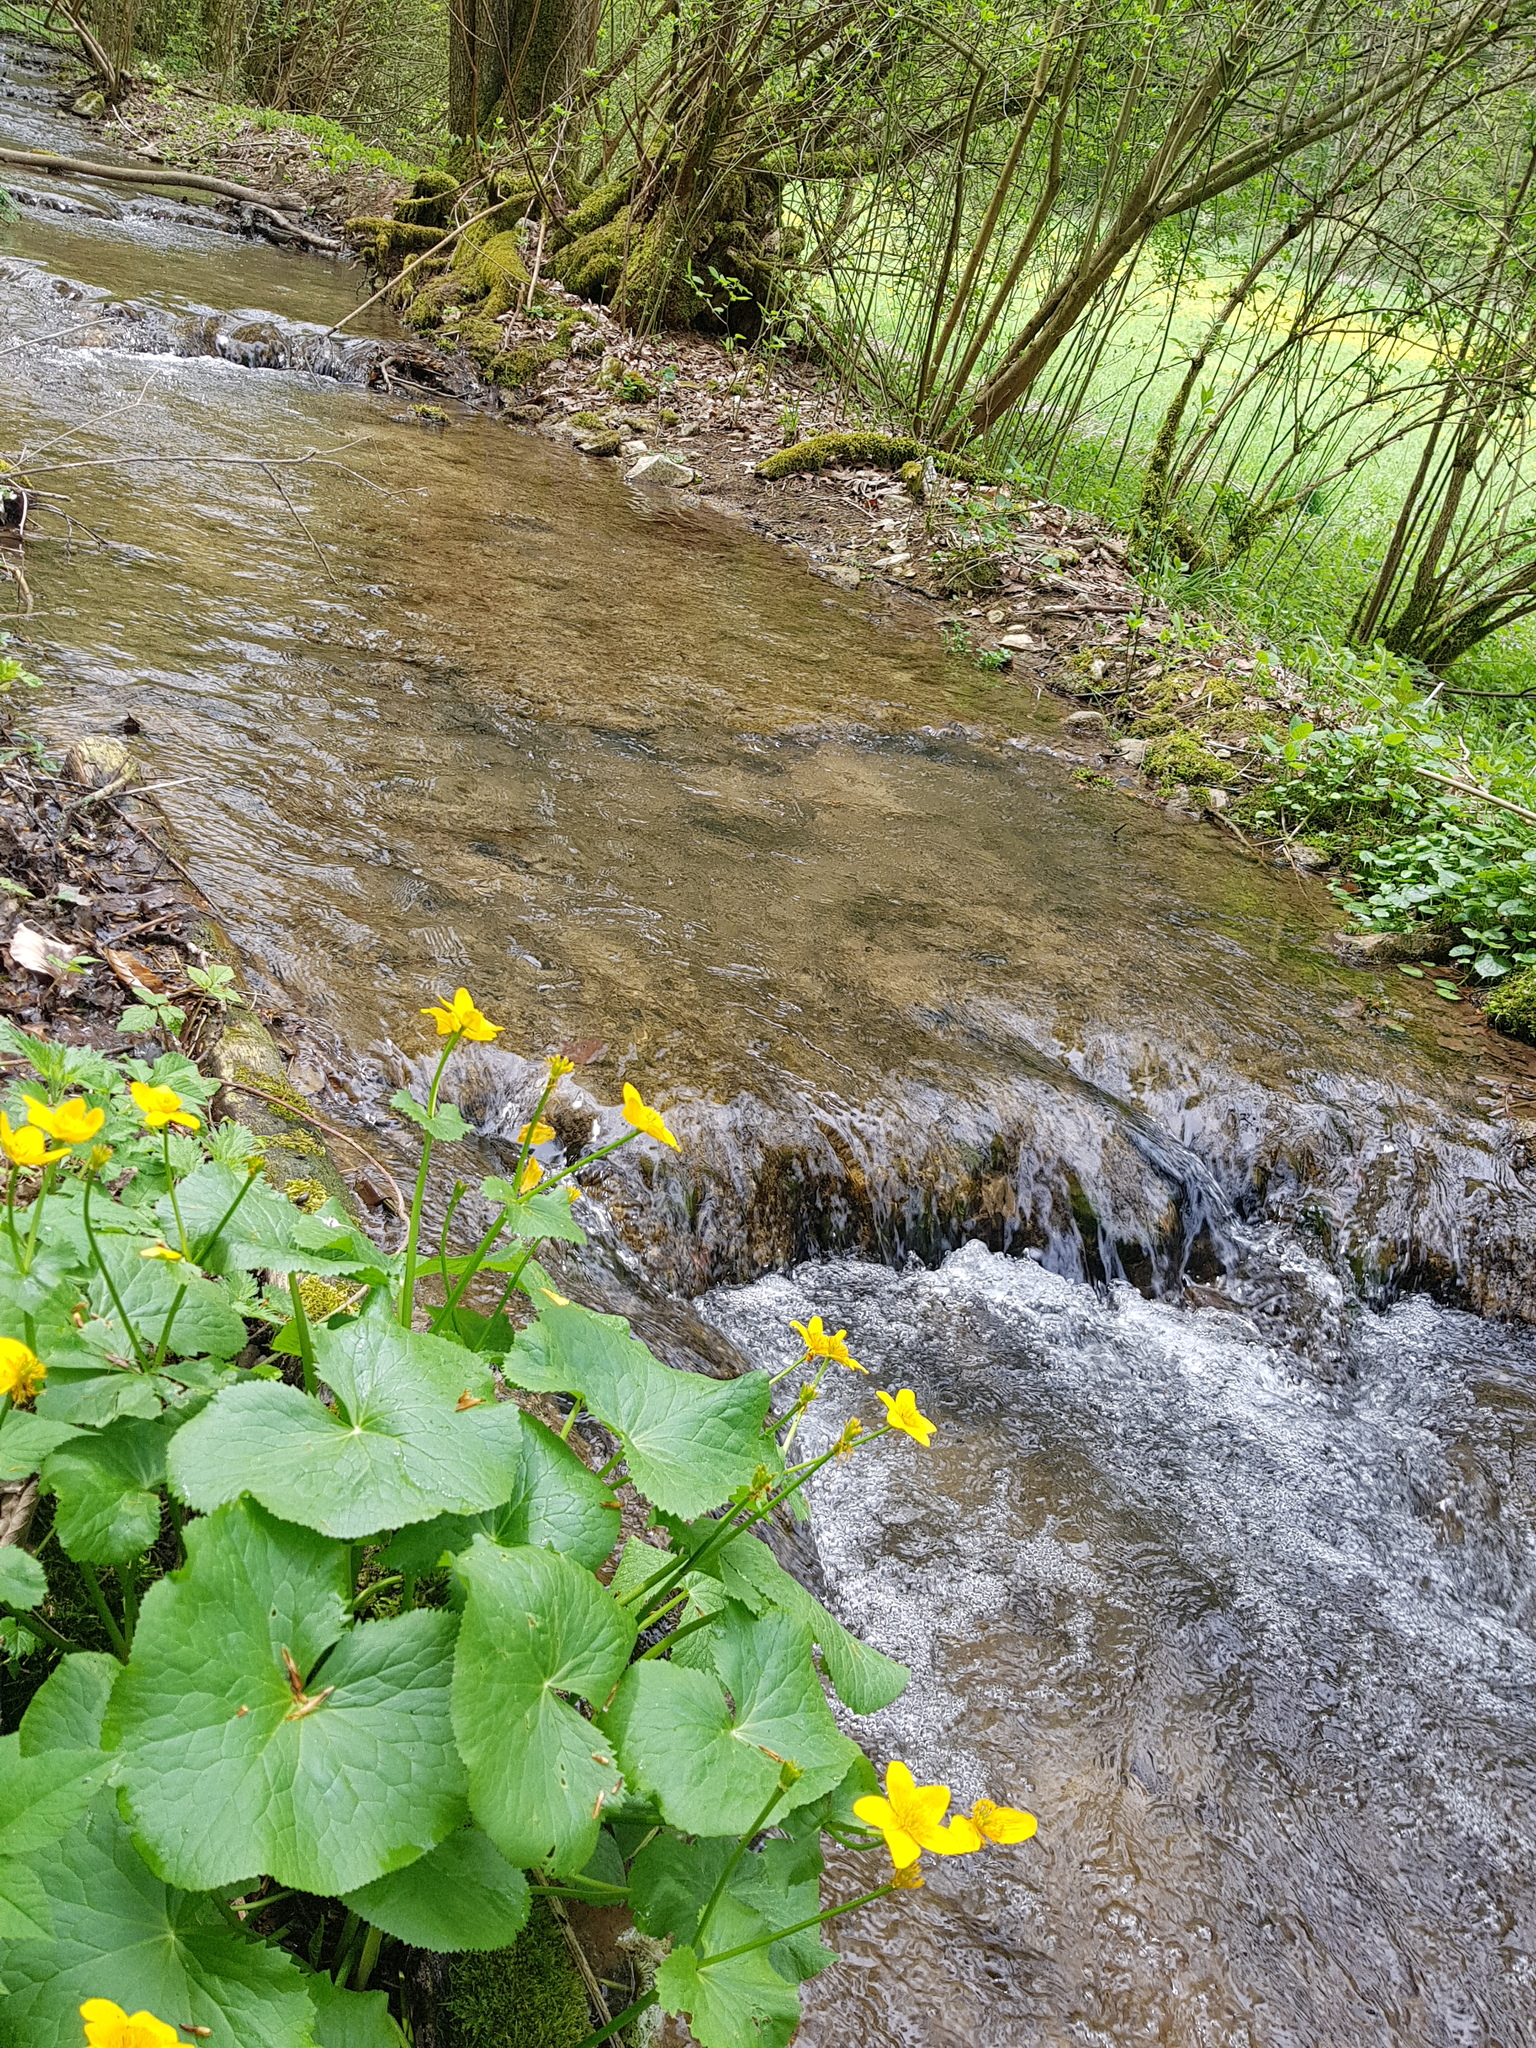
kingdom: Plantae
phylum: Tracheophyta
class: Magnoliopsida
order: Ranunculales
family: Ranunculaceae
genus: Caltha
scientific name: Caltha palustris
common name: Marsh marigold
